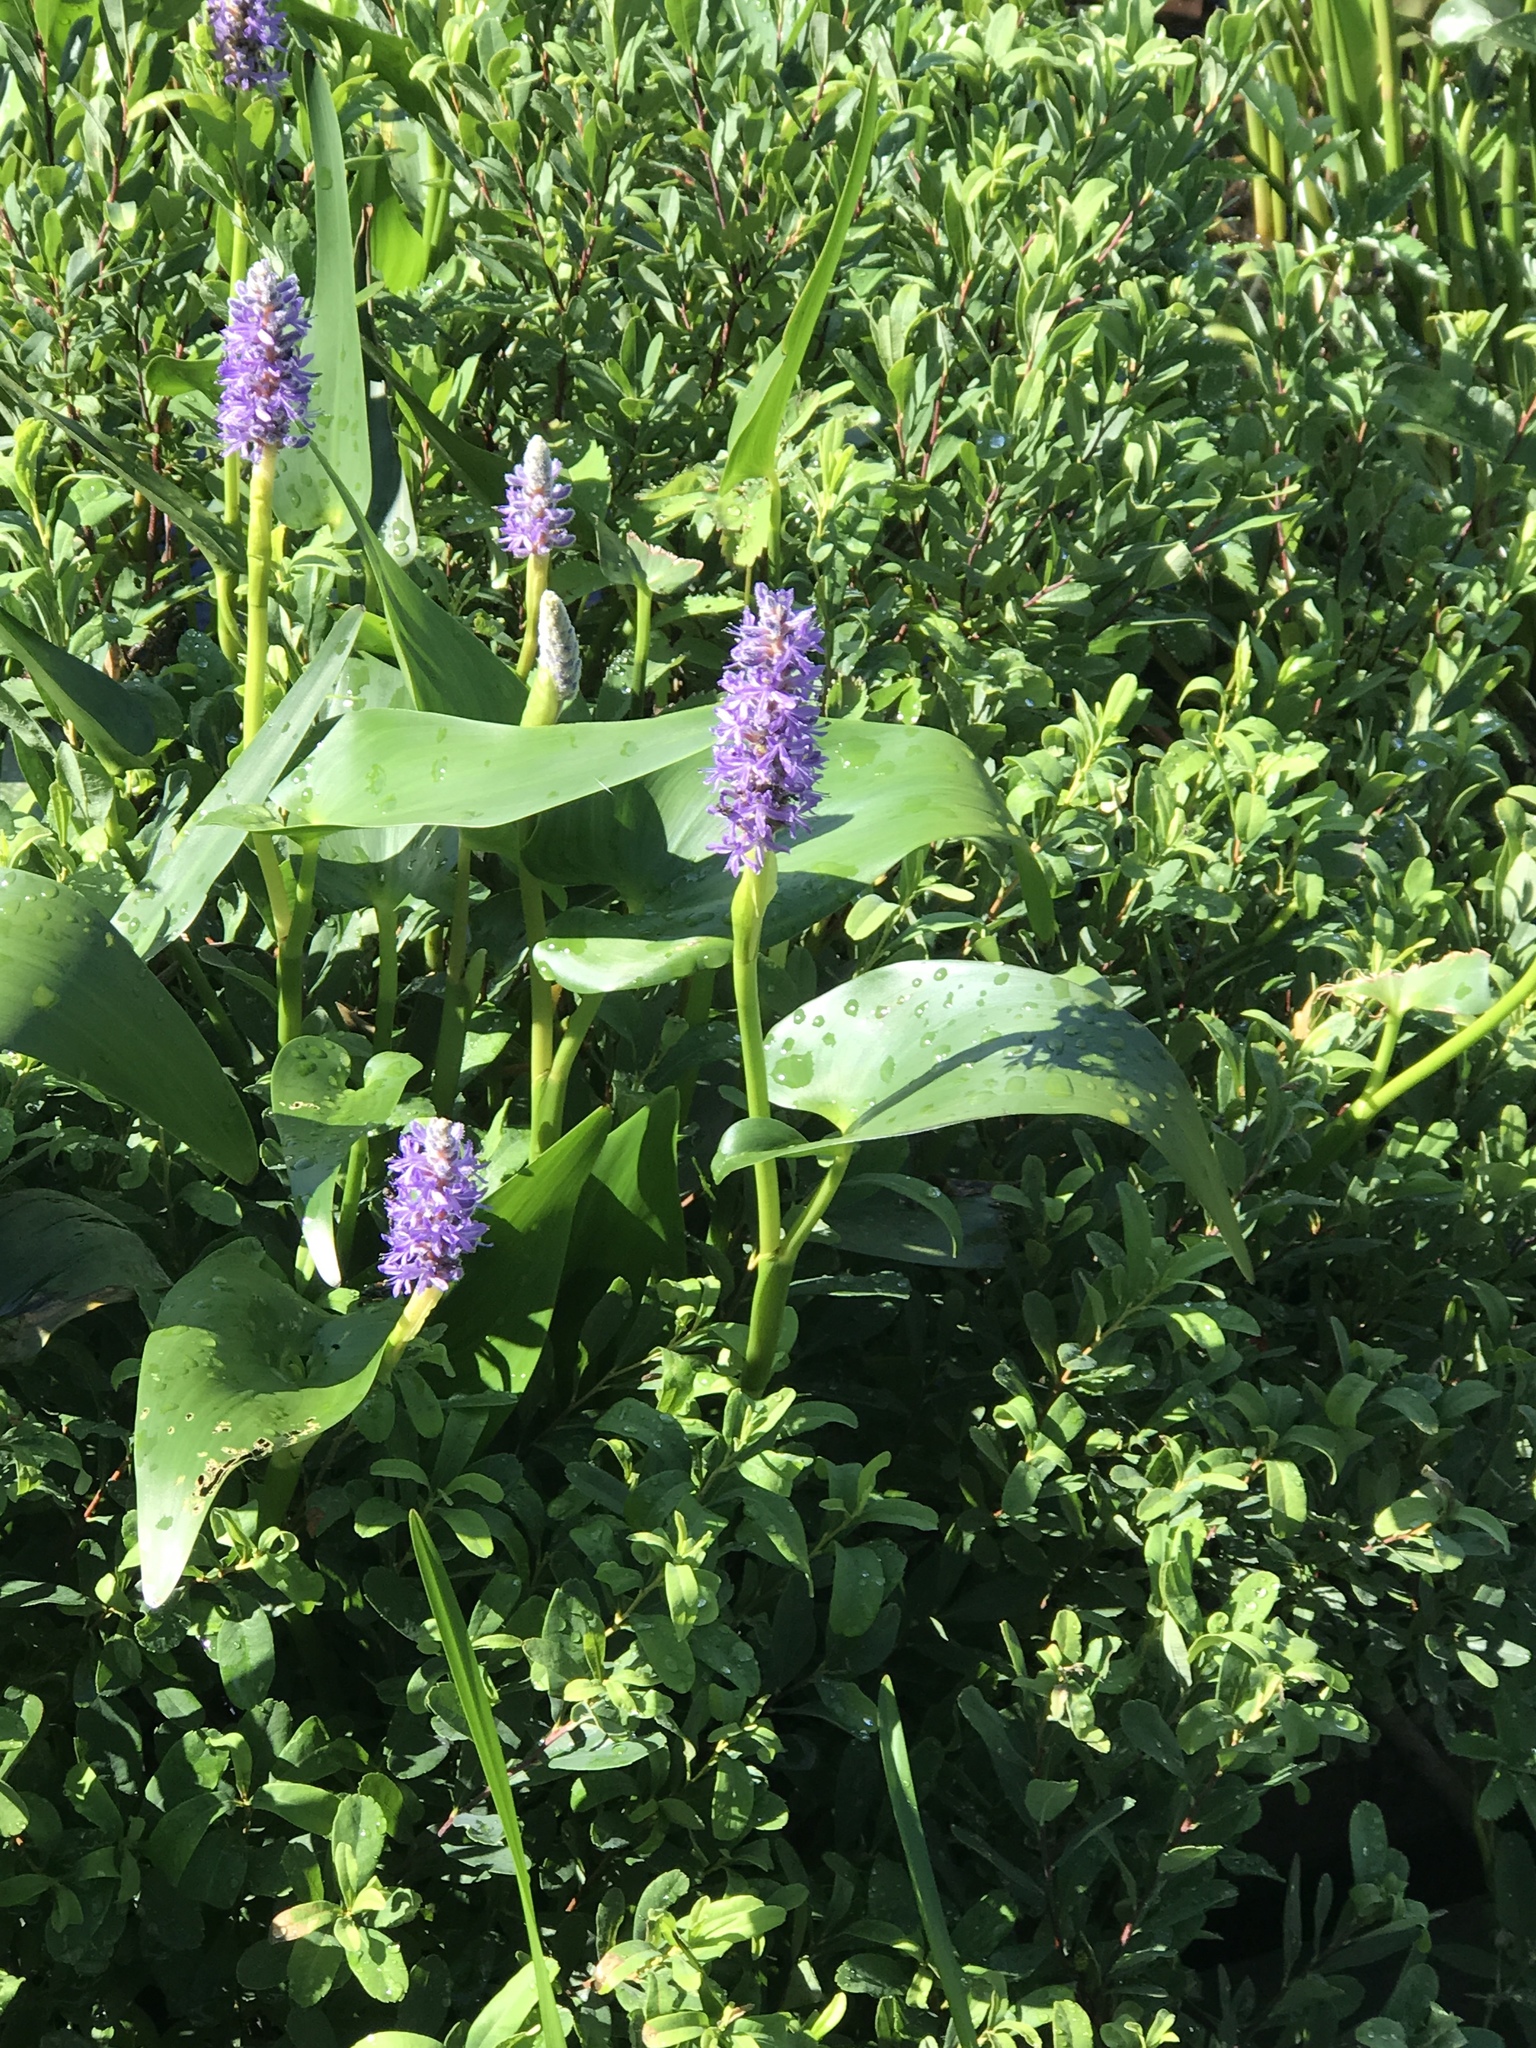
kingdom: Plantae
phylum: Tracheophyta
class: Liliopsida
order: Commelinales
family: Pontederiaceae
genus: Pontederia
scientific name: Pontederia cordata
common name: Pickerelweed
